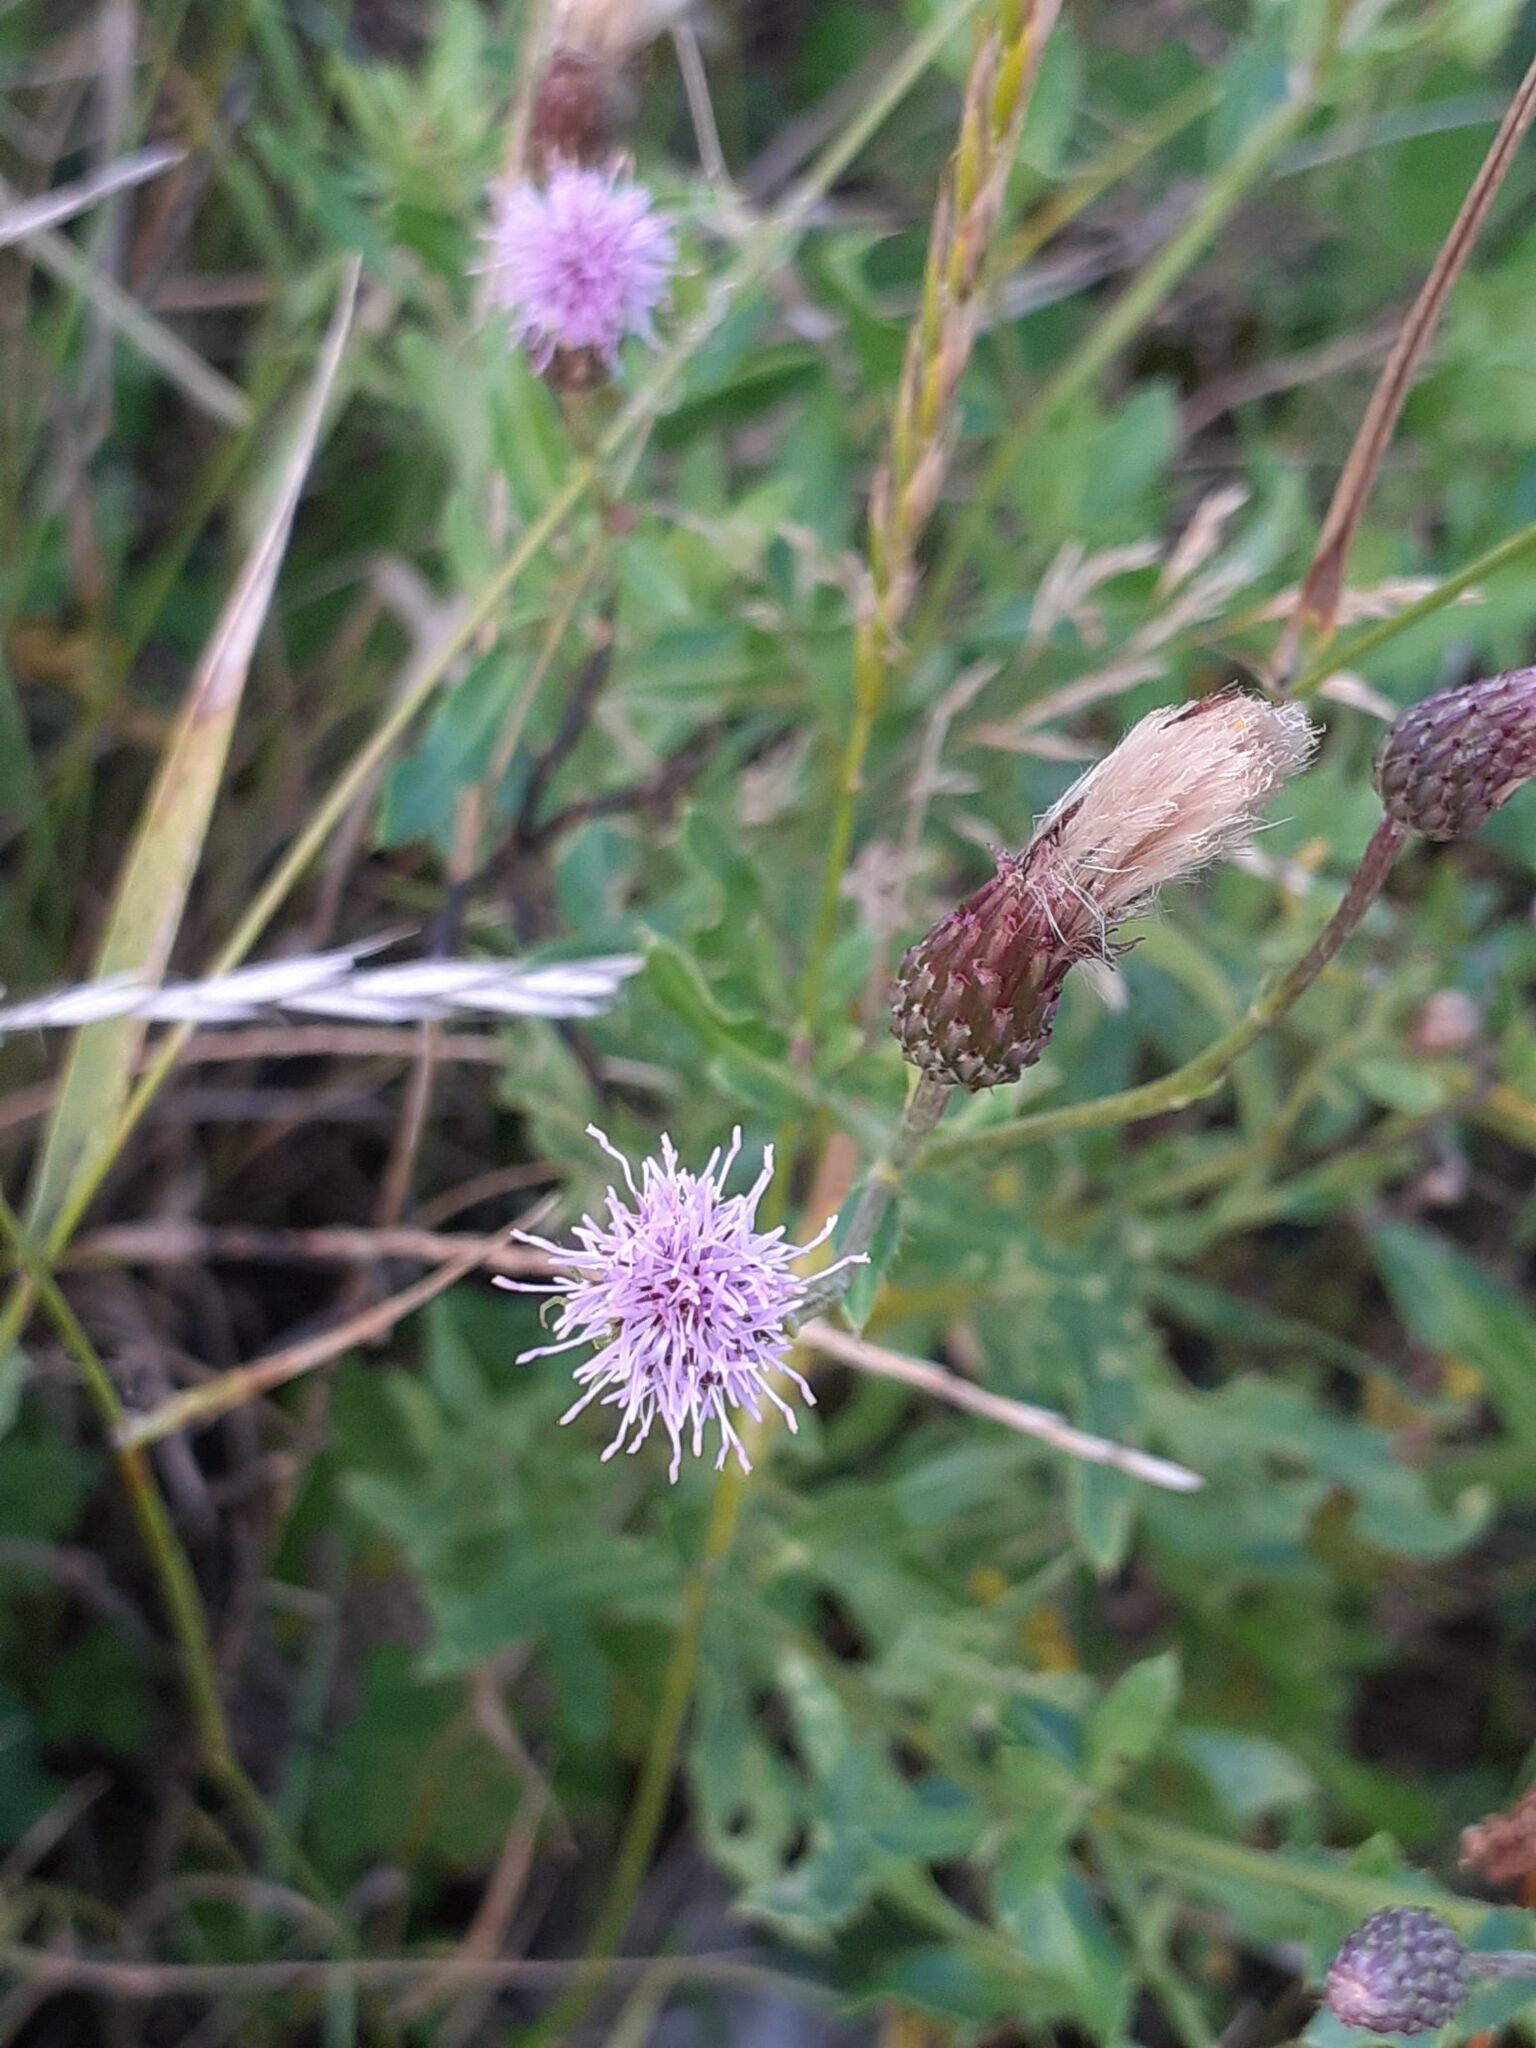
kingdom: Plantae
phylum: Tracheophyta
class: Magnoliopsida
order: Asterales
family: Asteraceae
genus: Cirsium
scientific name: Cirsium arvense
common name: Creeping thistle
